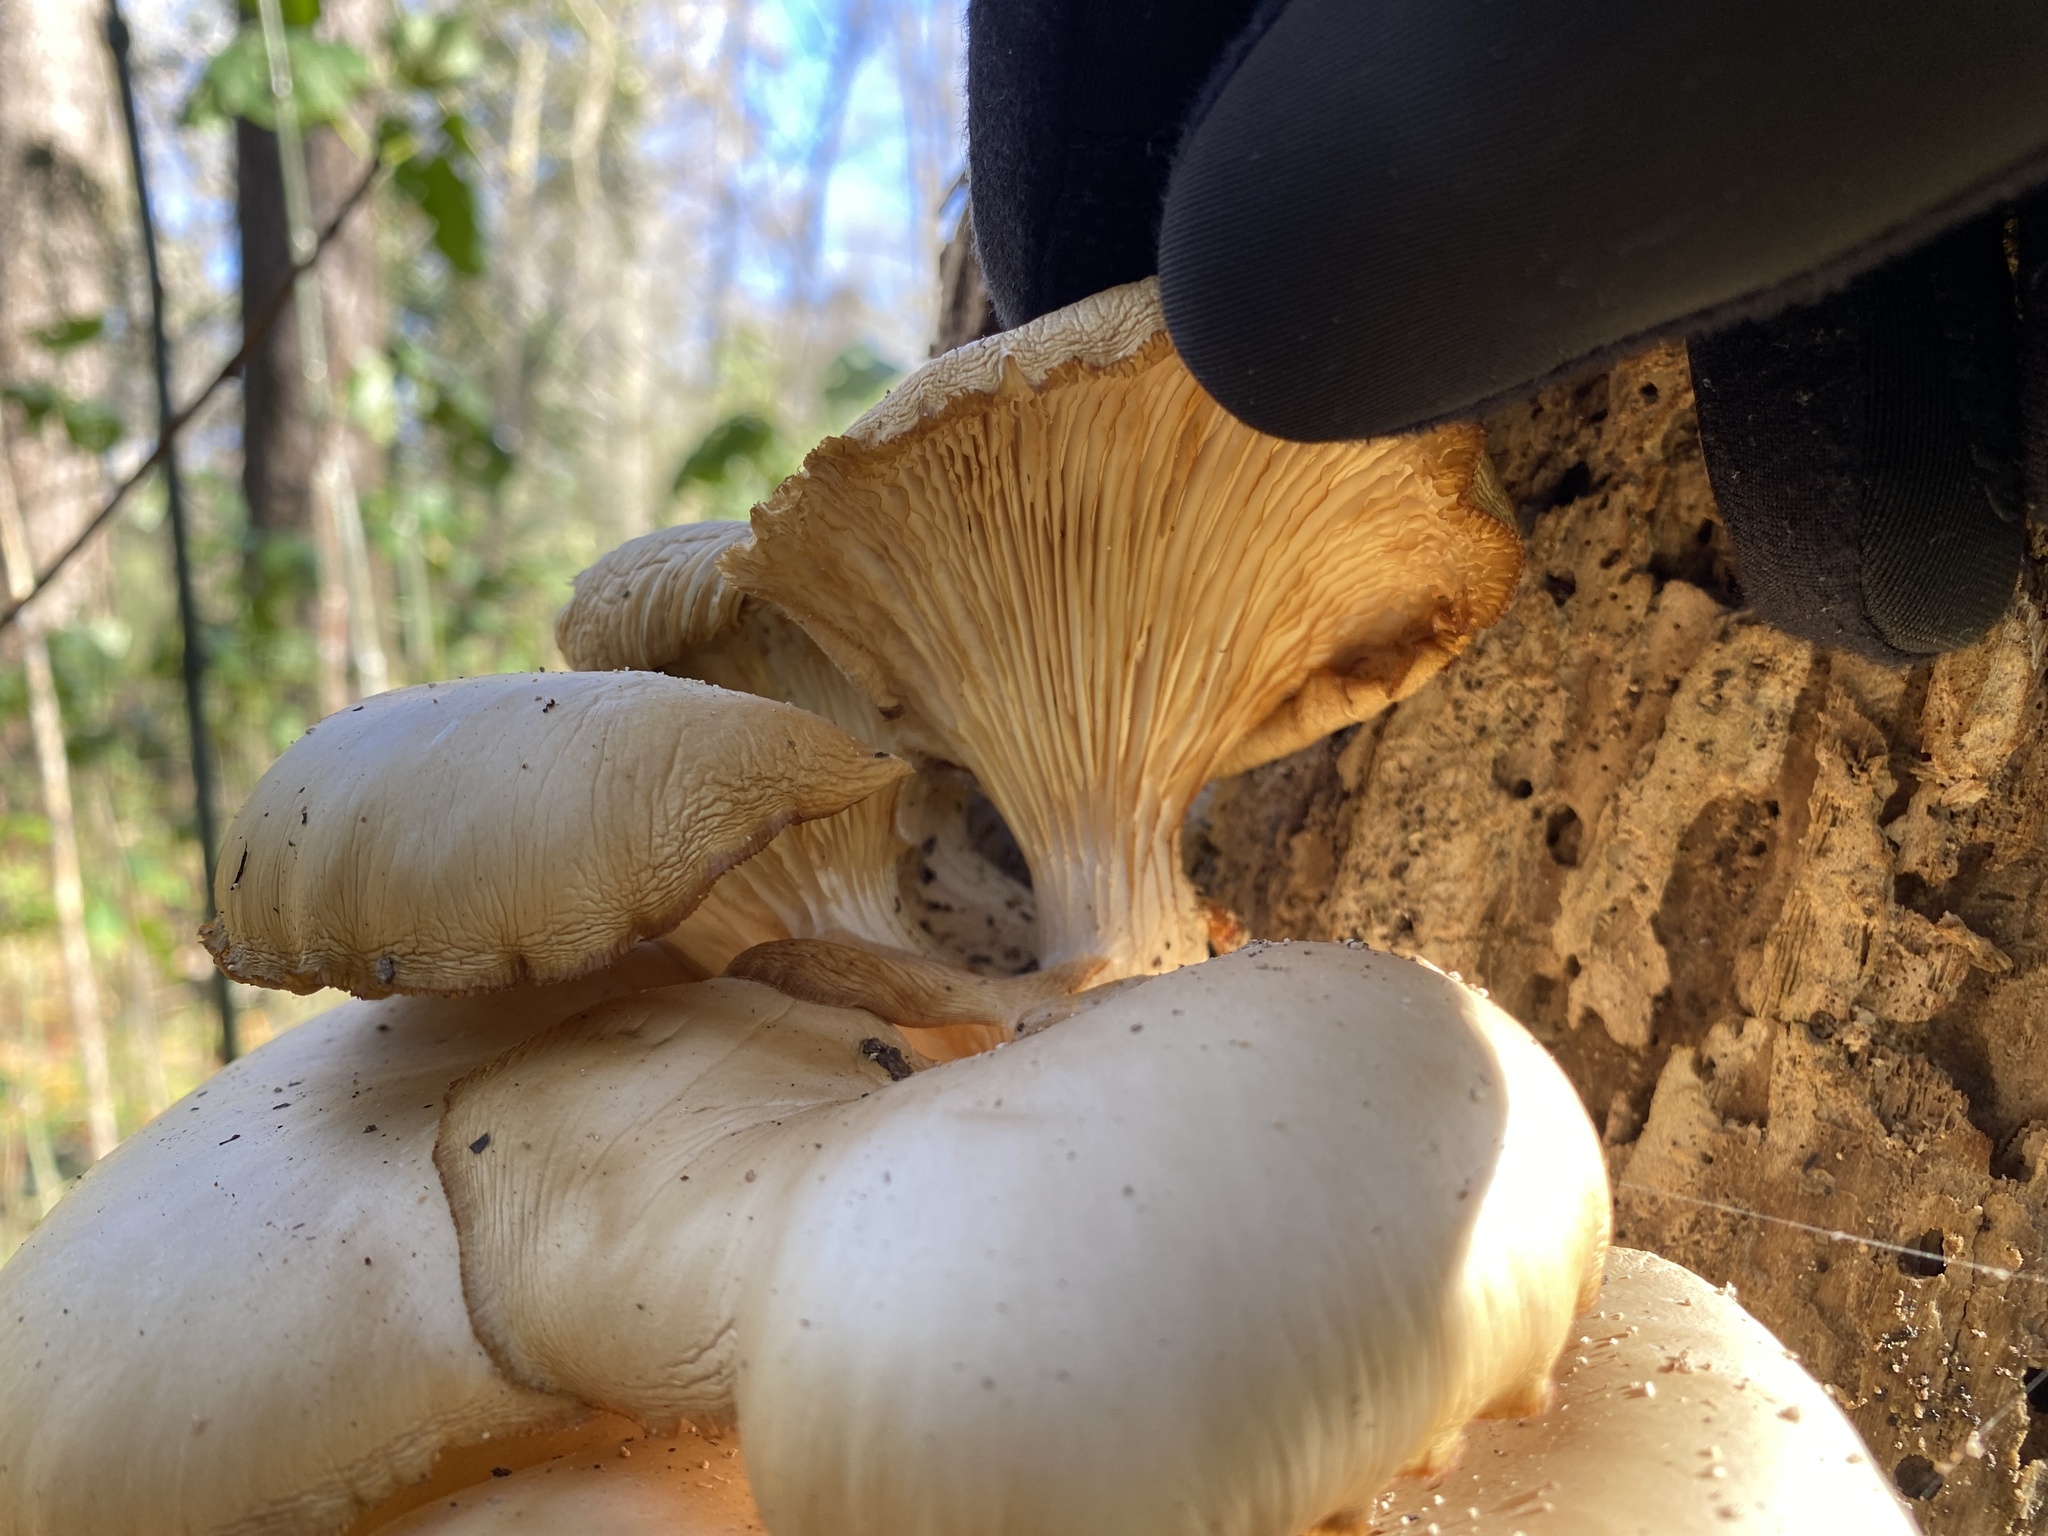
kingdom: Fungi
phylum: Basidiomycota
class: Agaricomycetes
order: Agaricales
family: Pleurotaceae
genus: Pleurotus
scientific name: Pleurotus ostreatus
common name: Oyster mushroom
